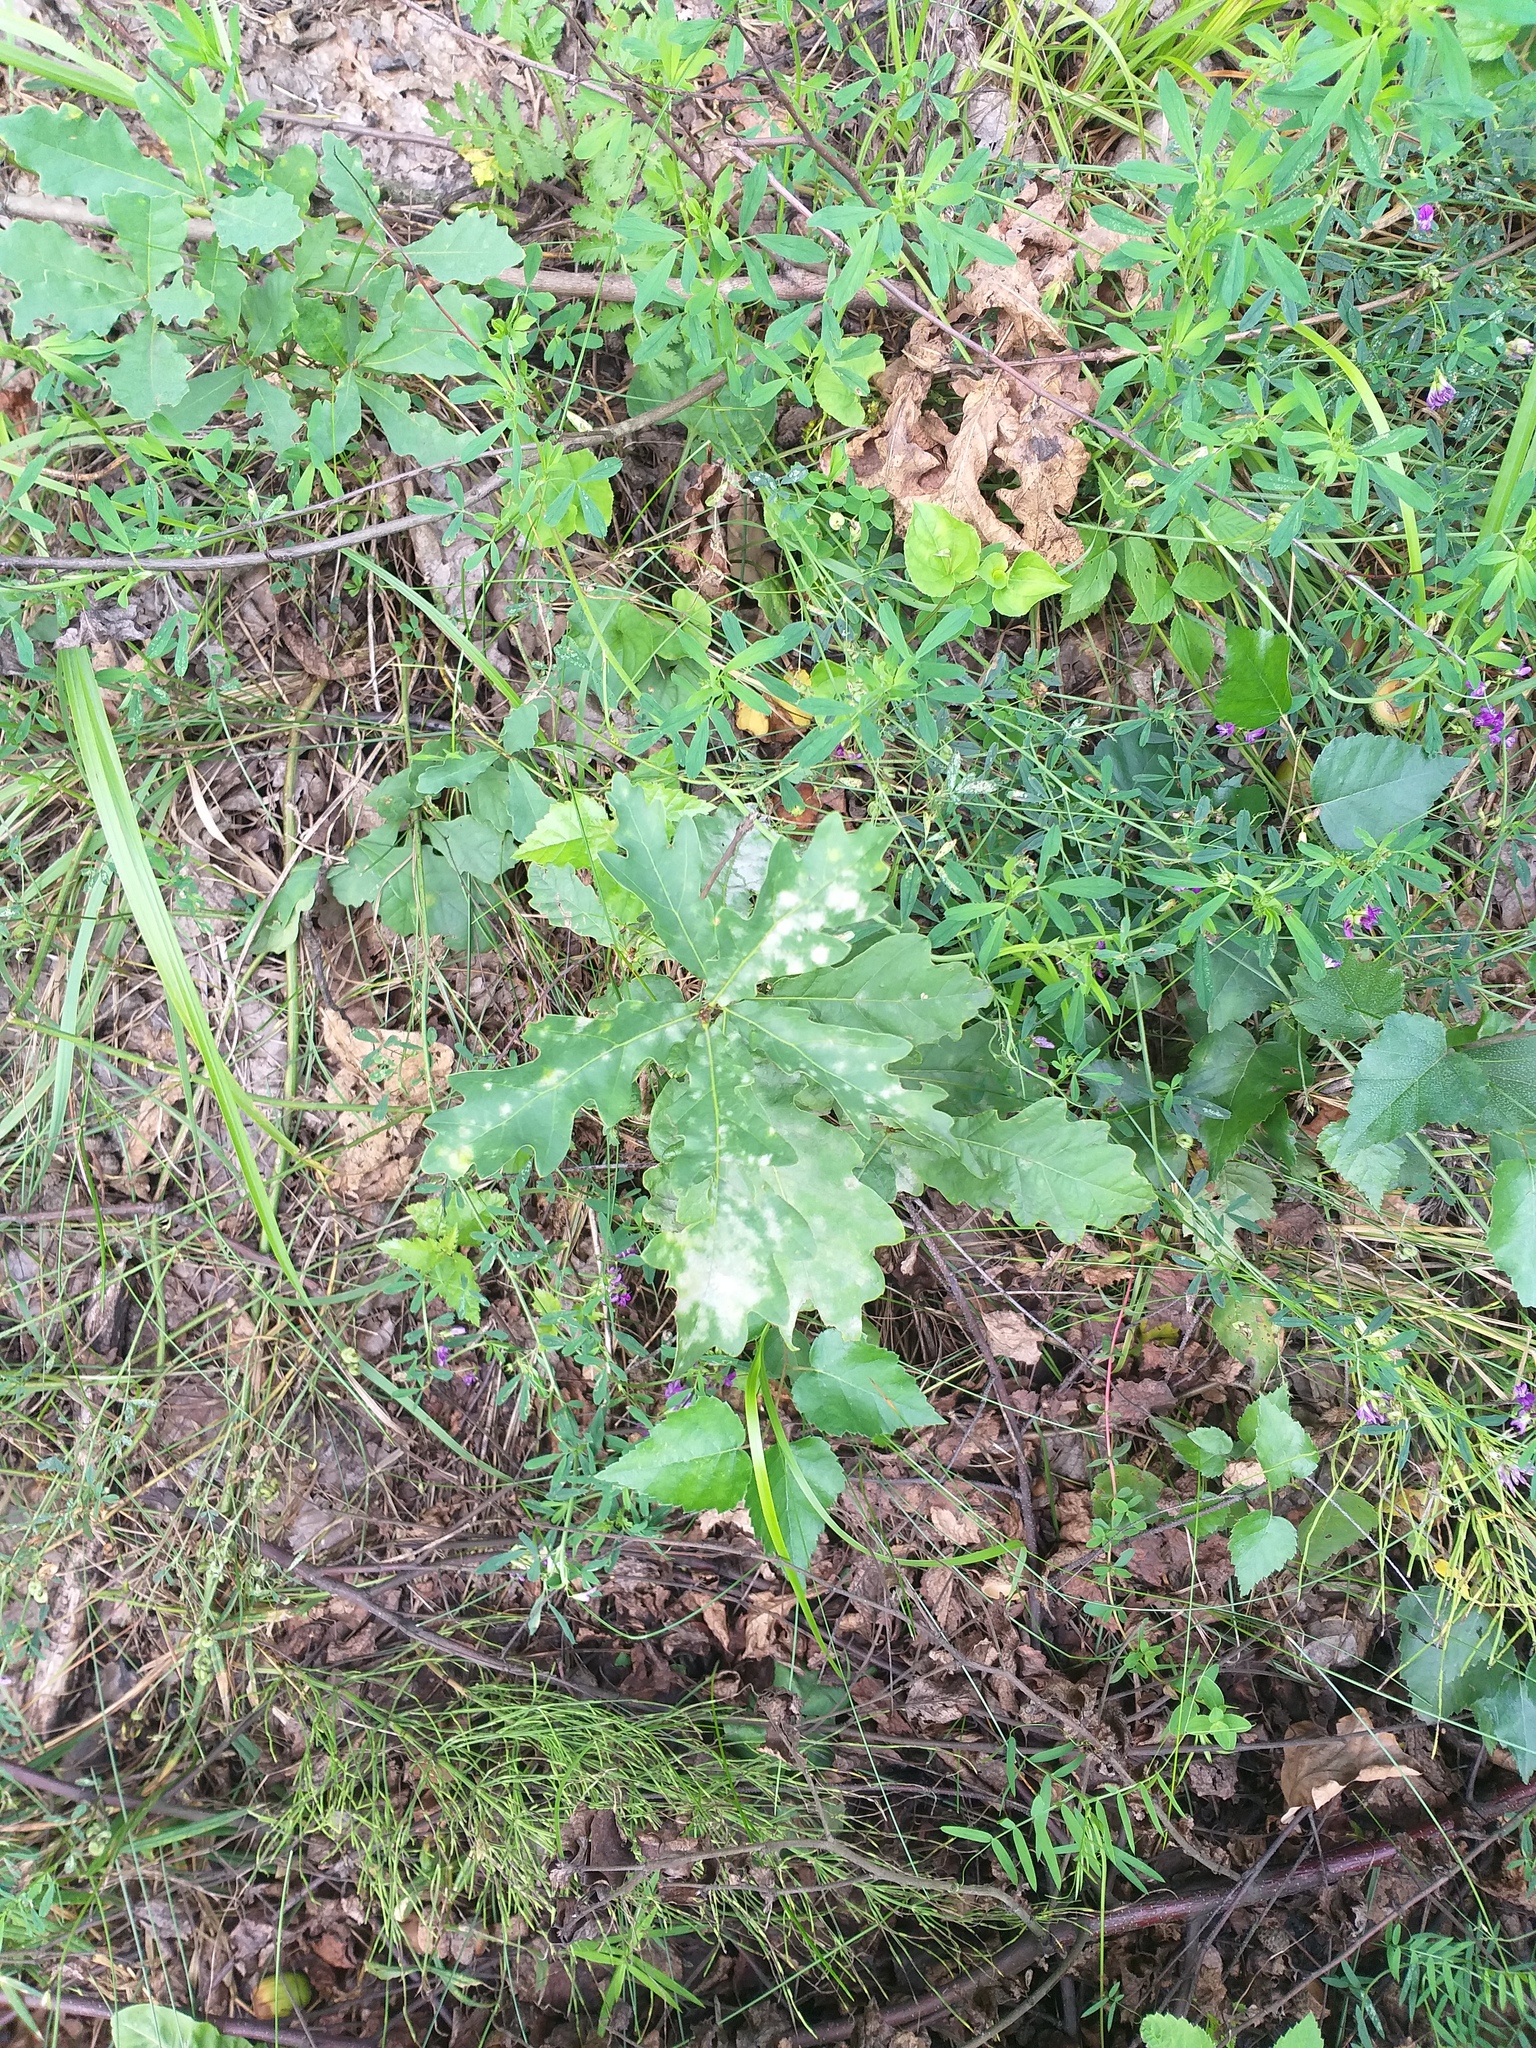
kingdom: Plantae
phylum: Tracheophyta
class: Magnoliopsida
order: Fagales
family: Fagaceae
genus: Quercus
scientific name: Quercus robur
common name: Pedunculate oak
